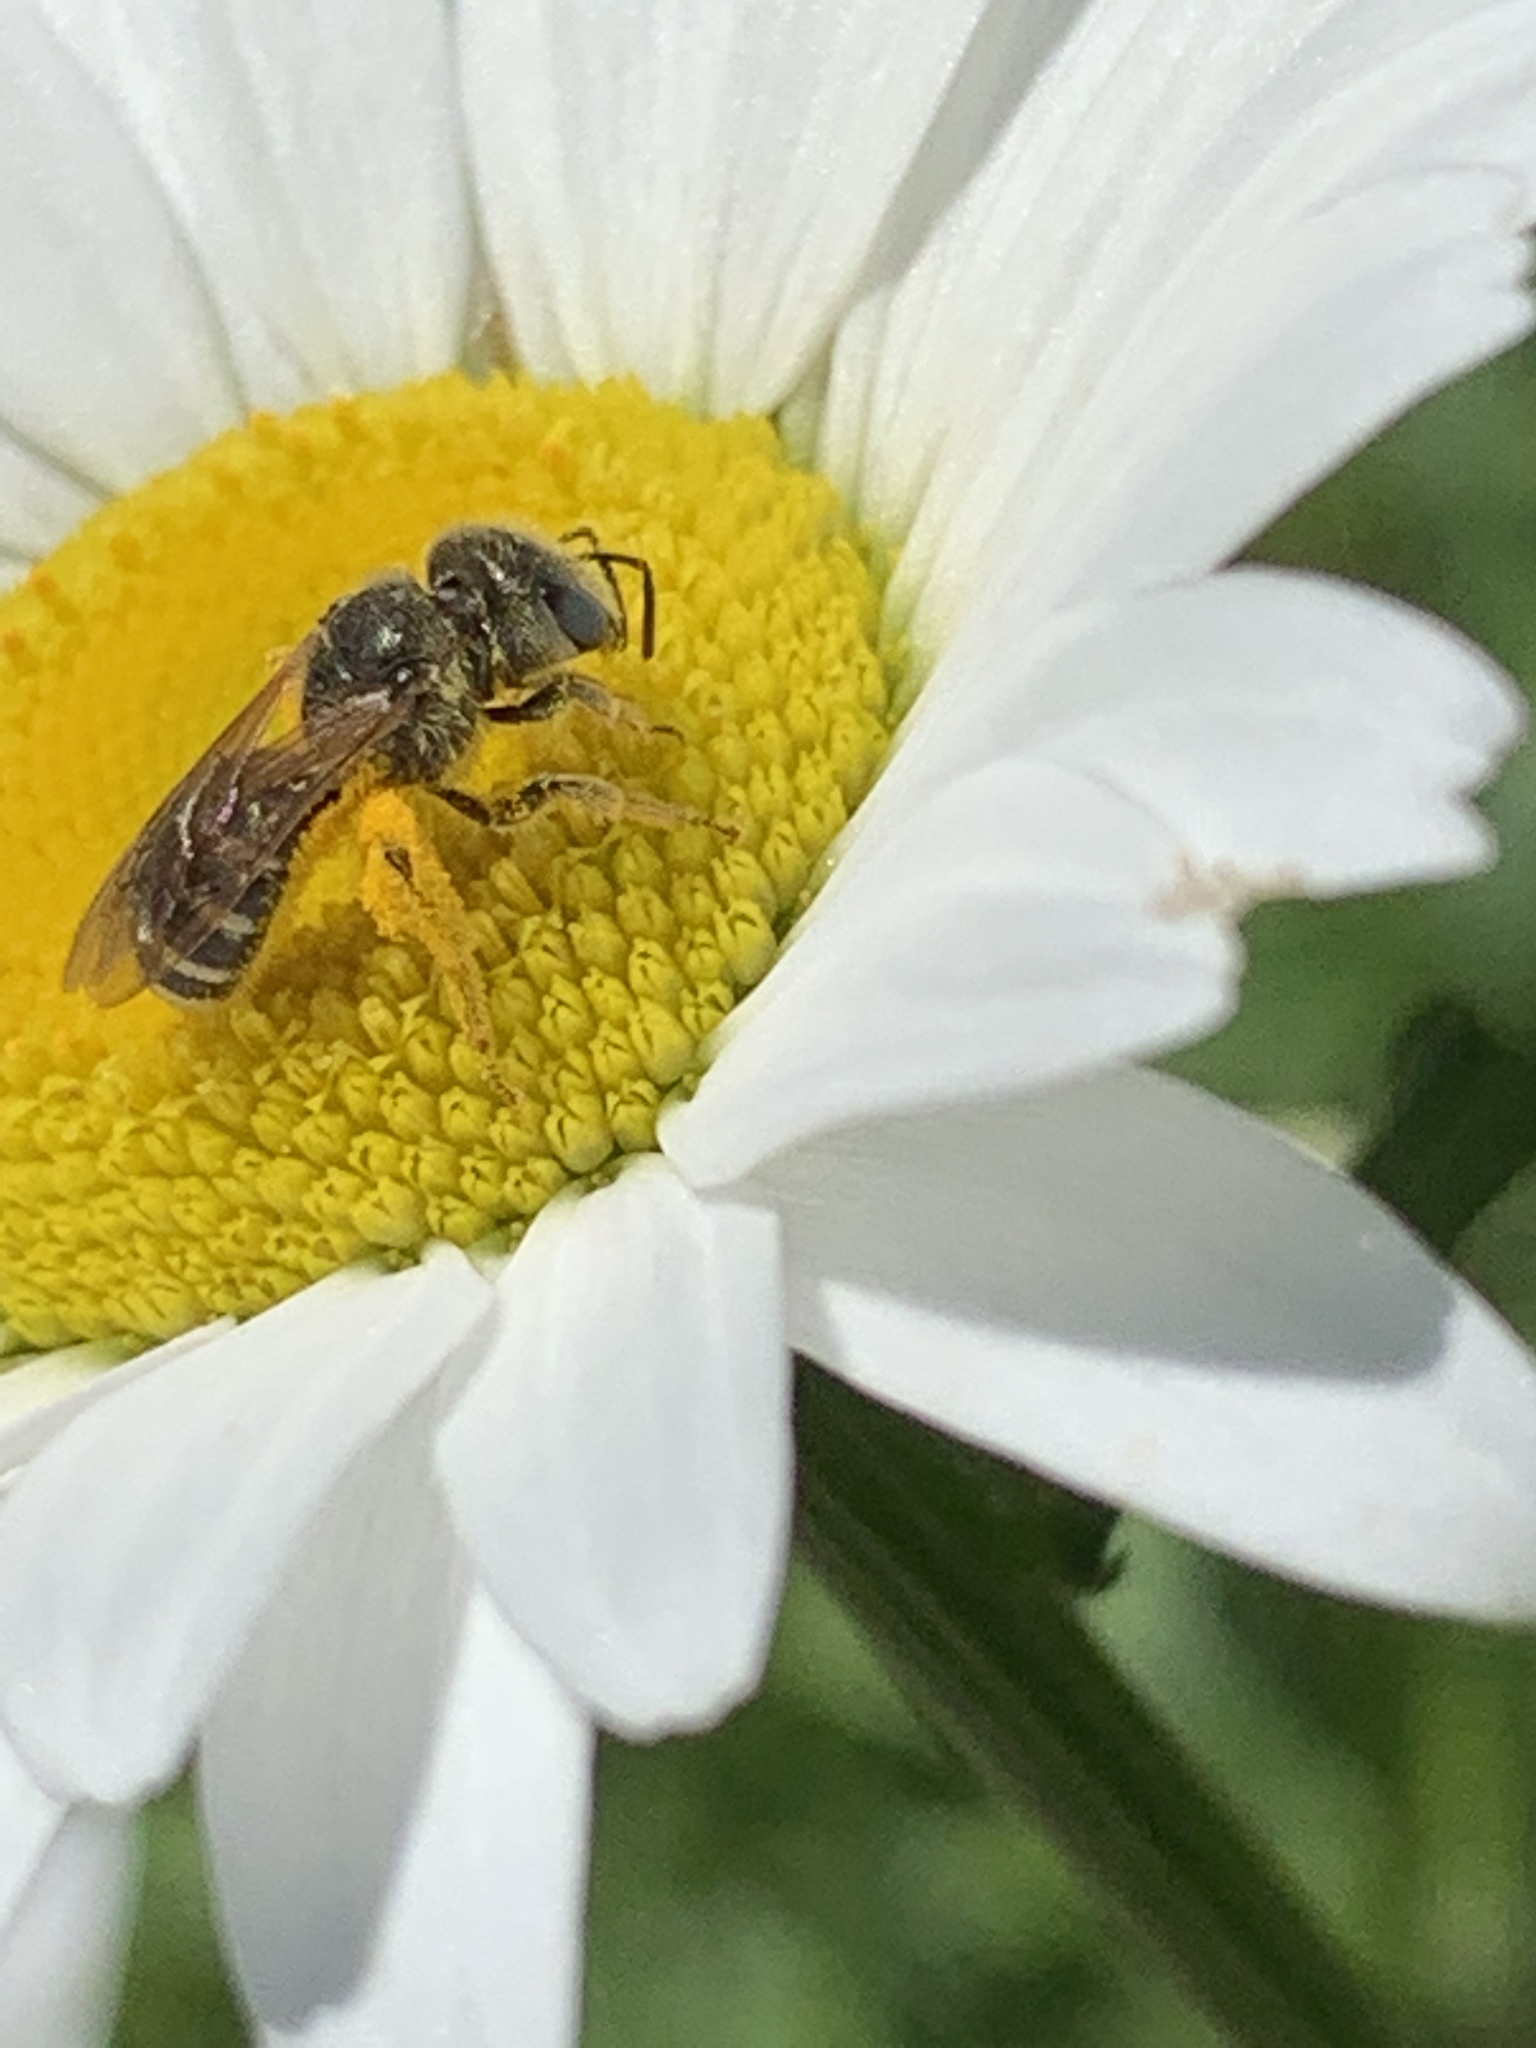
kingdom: Animalia
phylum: Arthropoda
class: Insecta
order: Hymenoptera
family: Halictidae
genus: Halictus
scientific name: Halictus ligatus
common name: Ligated furrow bee
